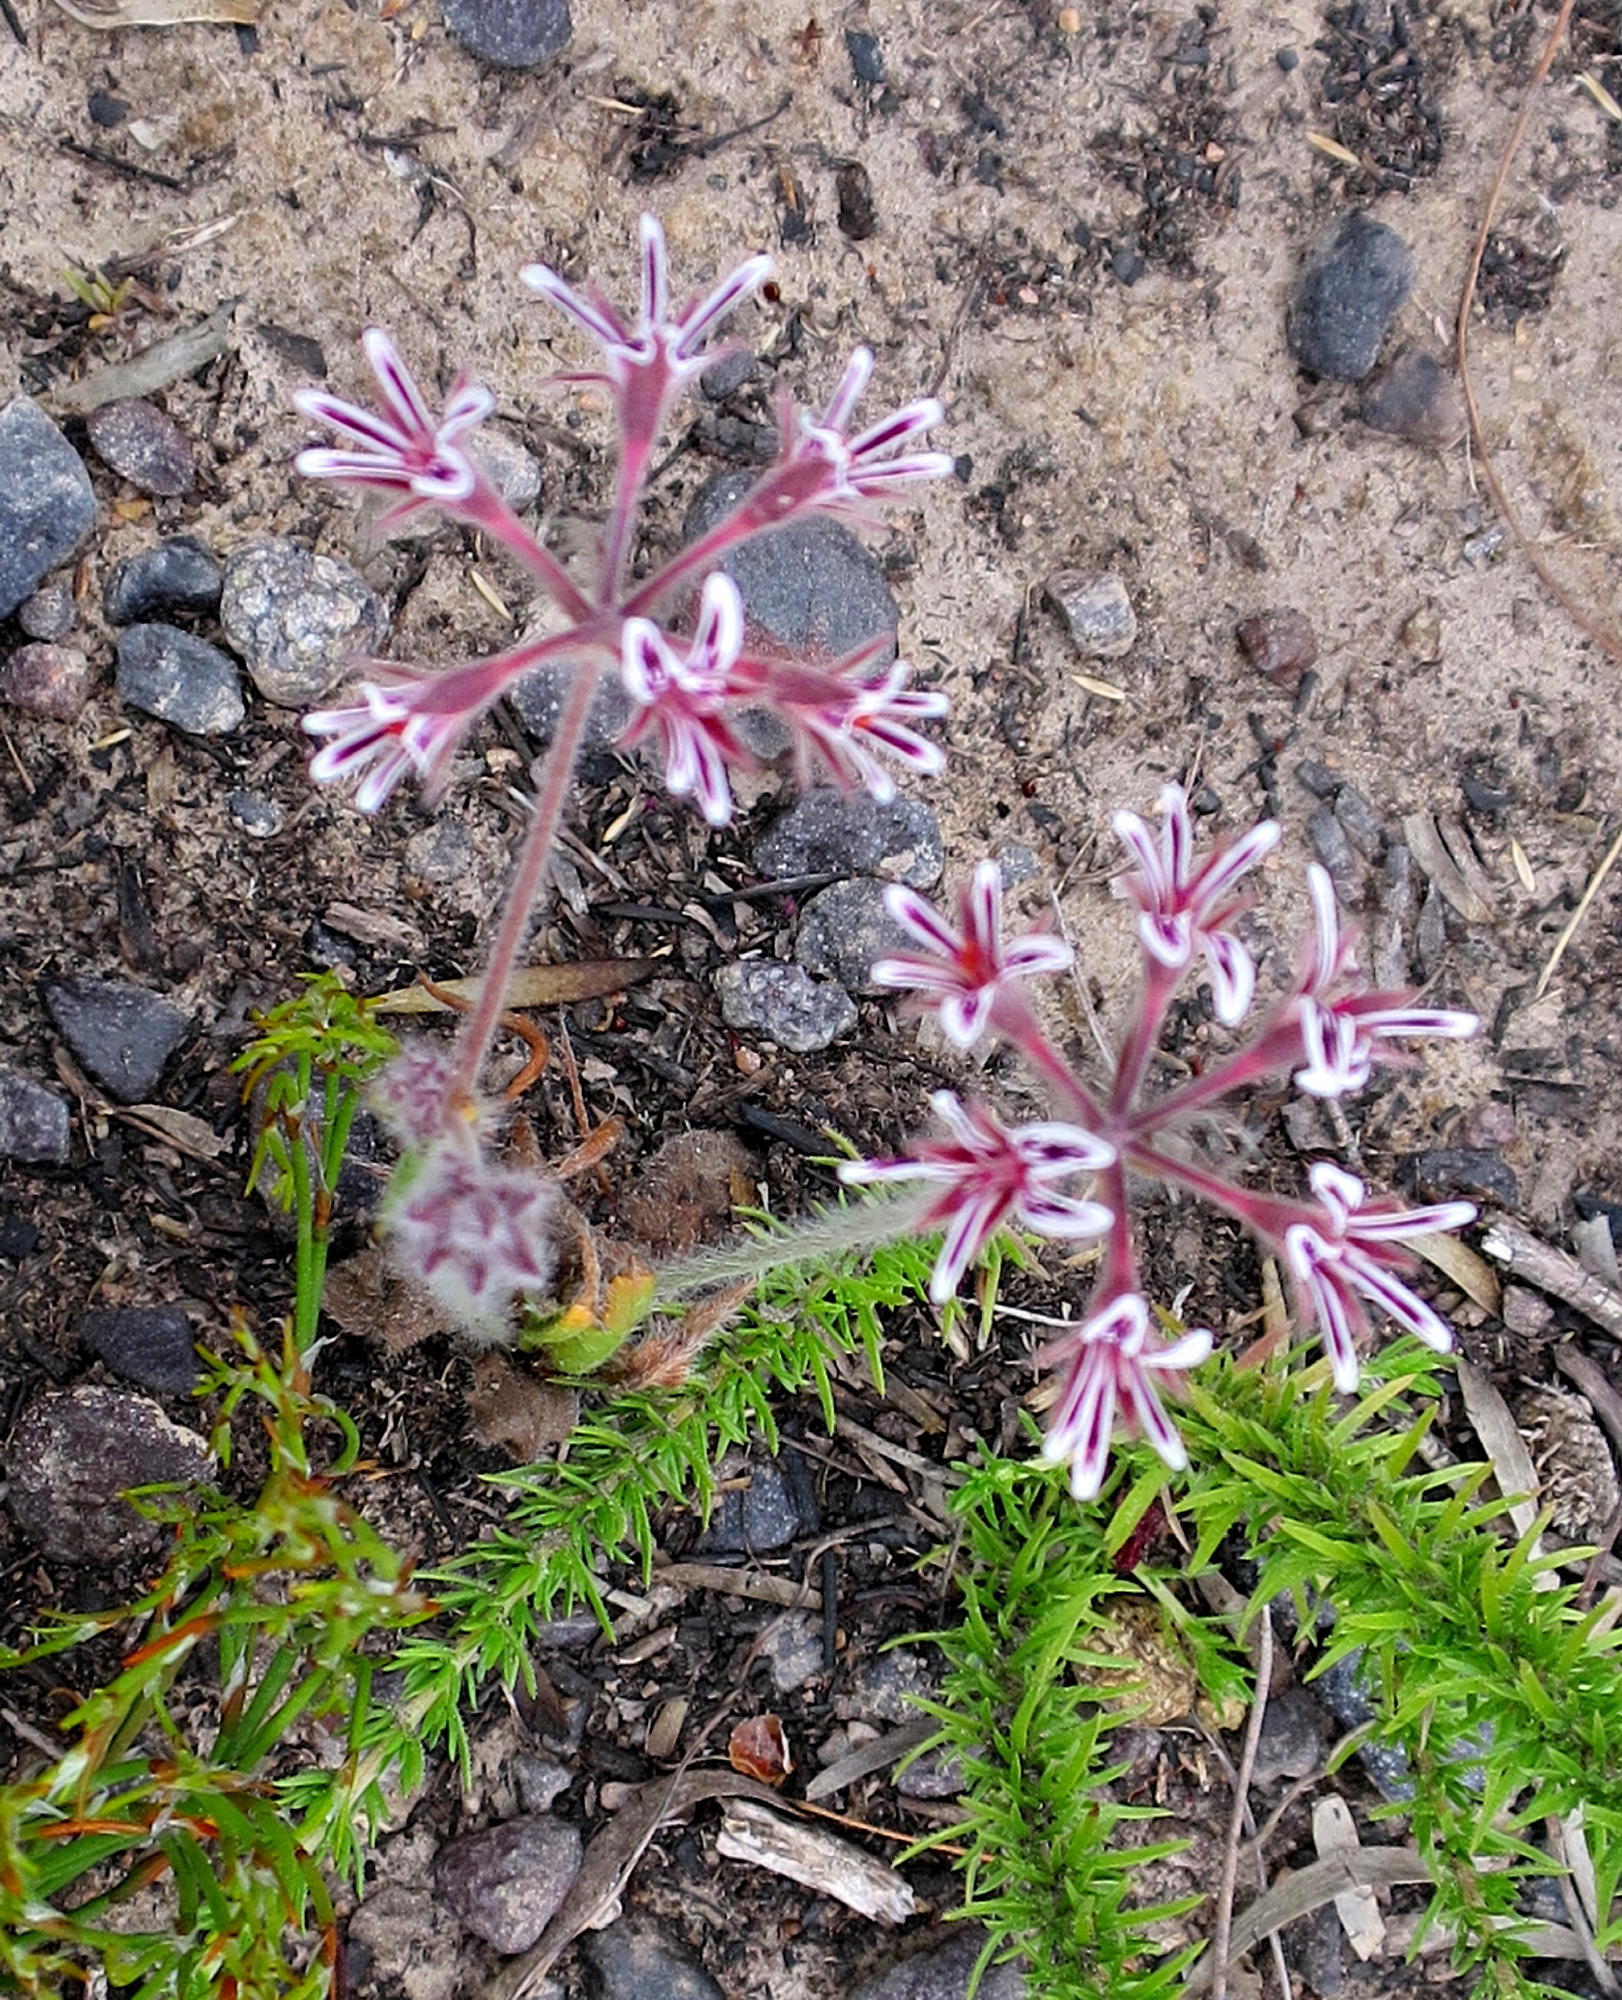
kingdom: Plantae
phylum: Tracheophyta
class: Magnoliopsida
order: Geraniales
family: Geraniaceae
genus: Pelargonium
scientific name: Pelargonium pilosellifolium
